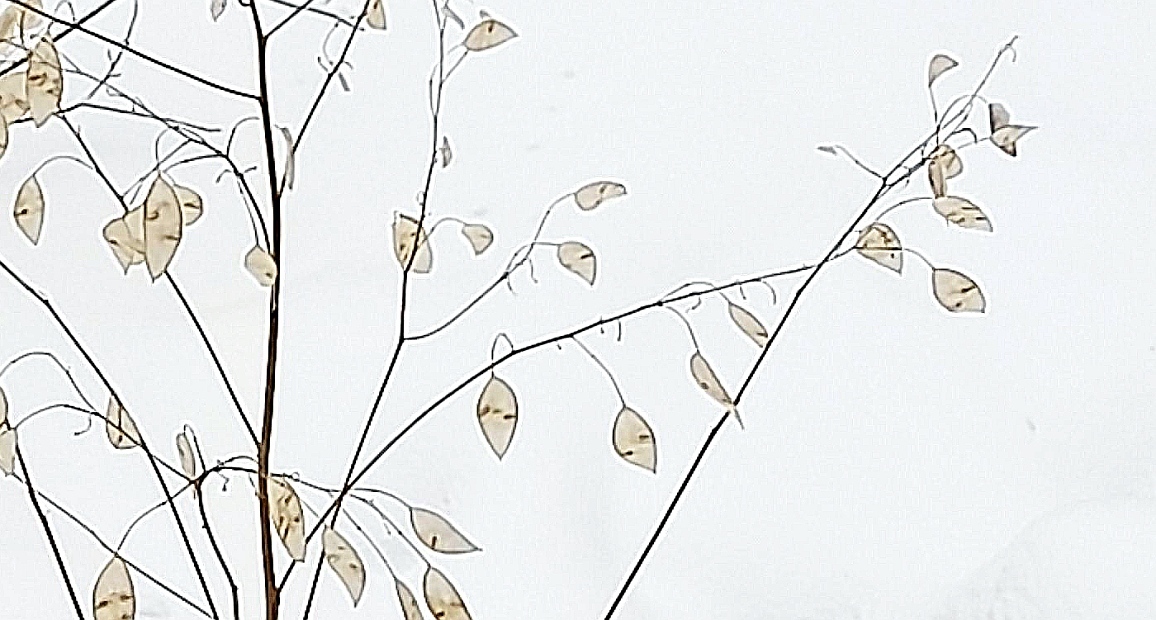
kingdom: Plantae
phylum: Tracheophyta
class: Magnoliopsida
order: Brassicales
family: Brassicaceae
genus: Lunaria
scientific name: Lunaria rediviva
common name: Perennial honesty
